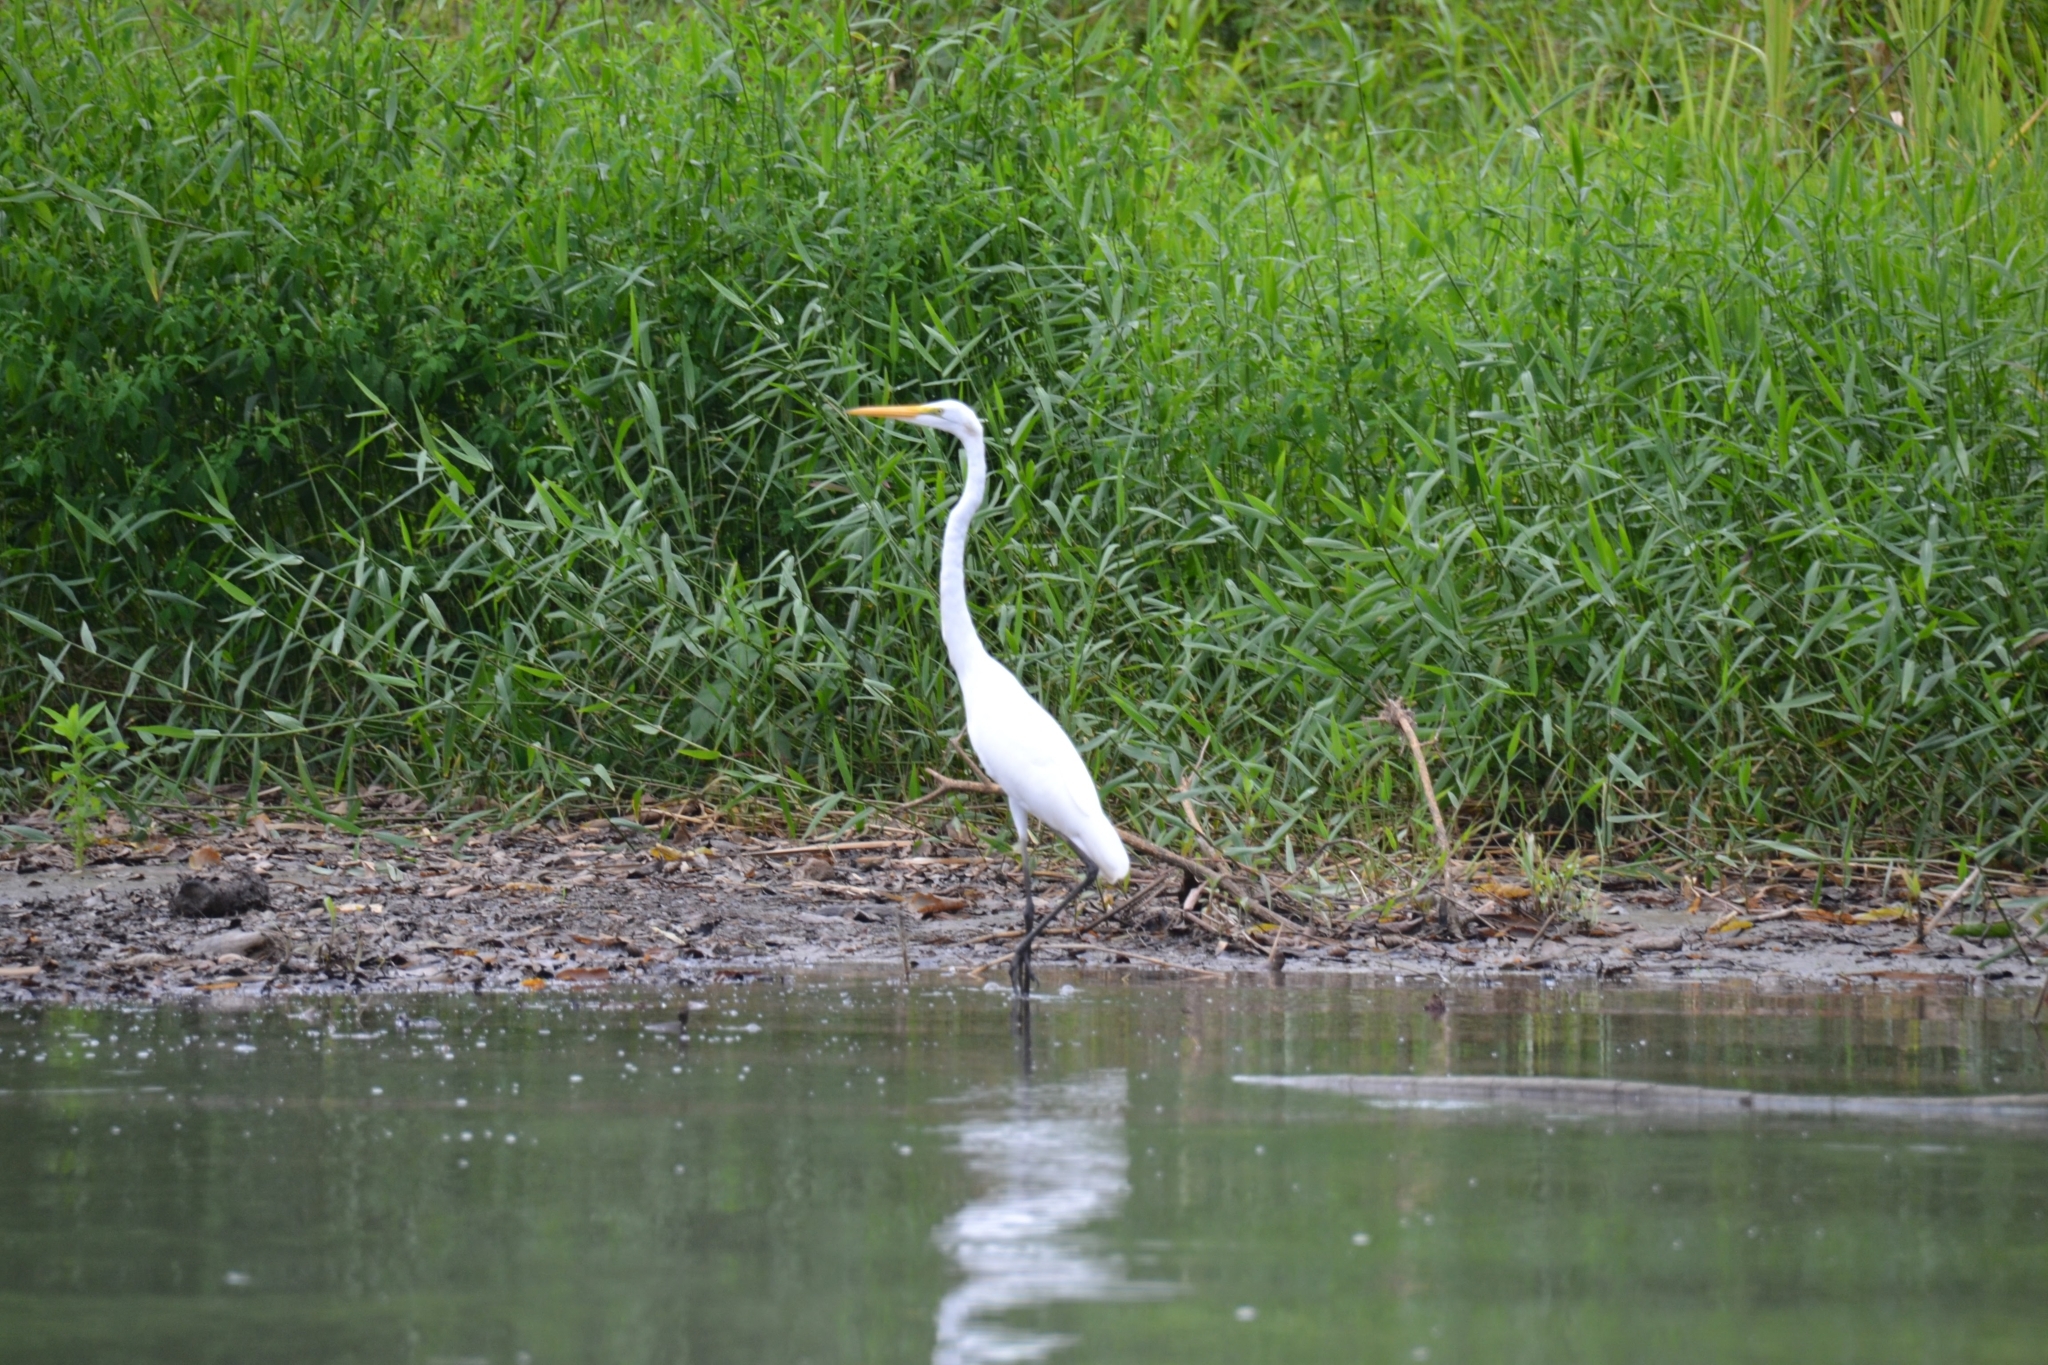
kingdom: Animalia
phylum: Chordata
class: Aves
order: Pelecaniformes
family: Ardeidae
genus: Ardea
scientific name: Ardea alba
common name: Great egret
